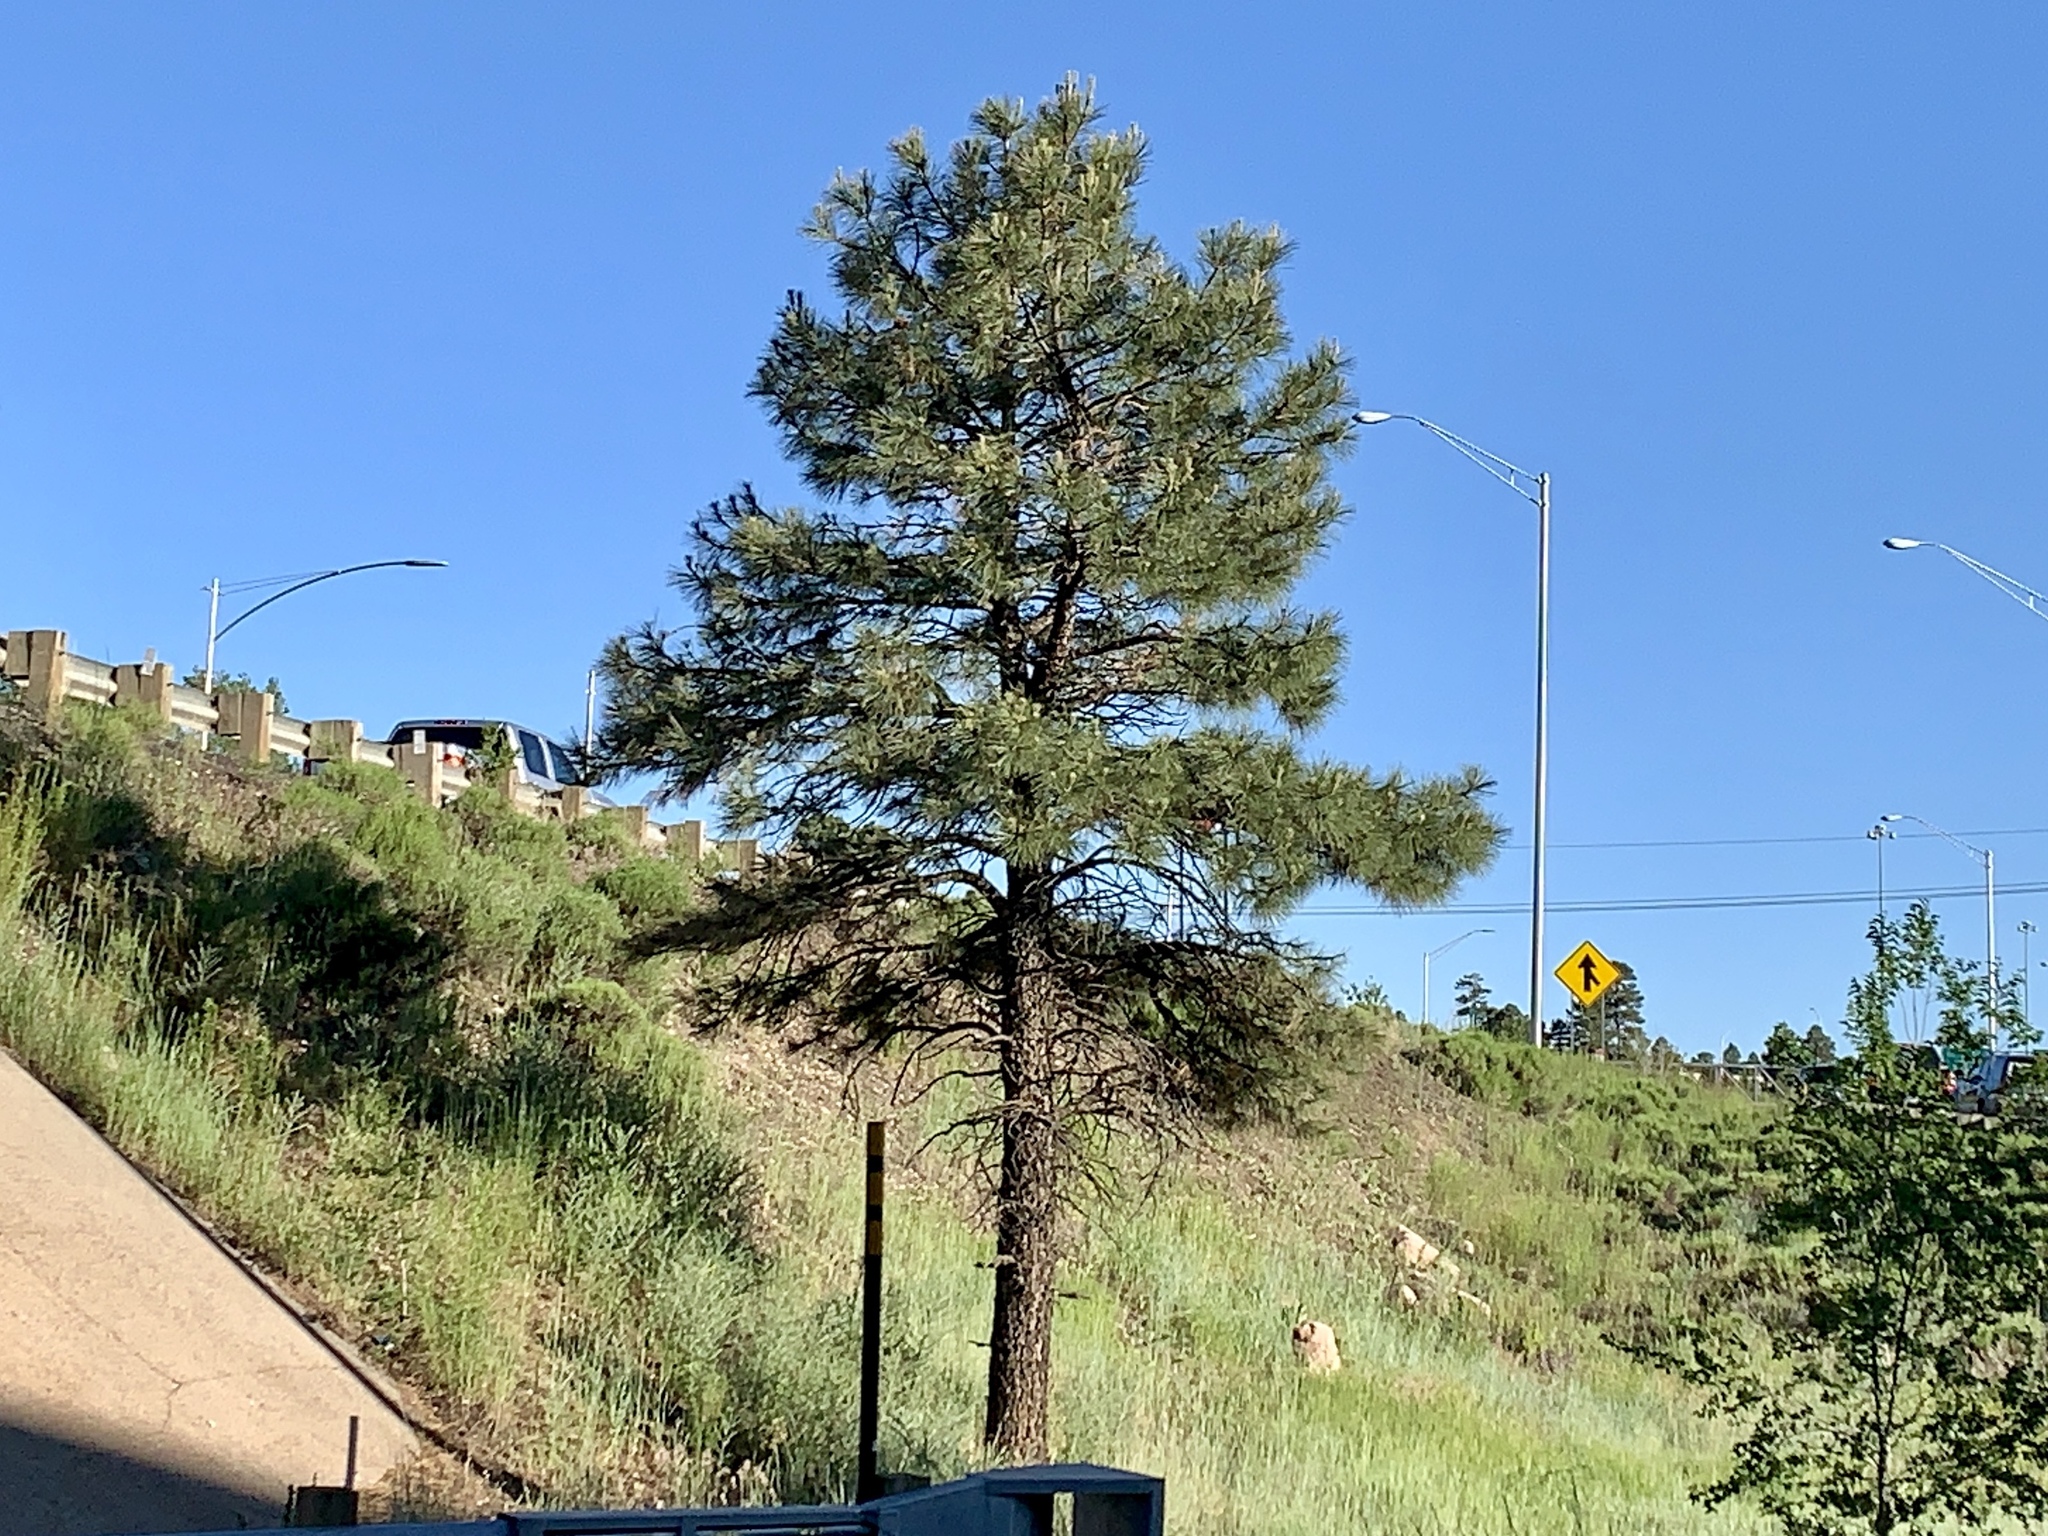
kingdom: Plantae
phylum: Tracheophyta
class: Pinopsida
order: Pinales
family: Pinaceae
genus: Pinus
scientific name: Pinus ponderosa
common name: Western yellow-pine
